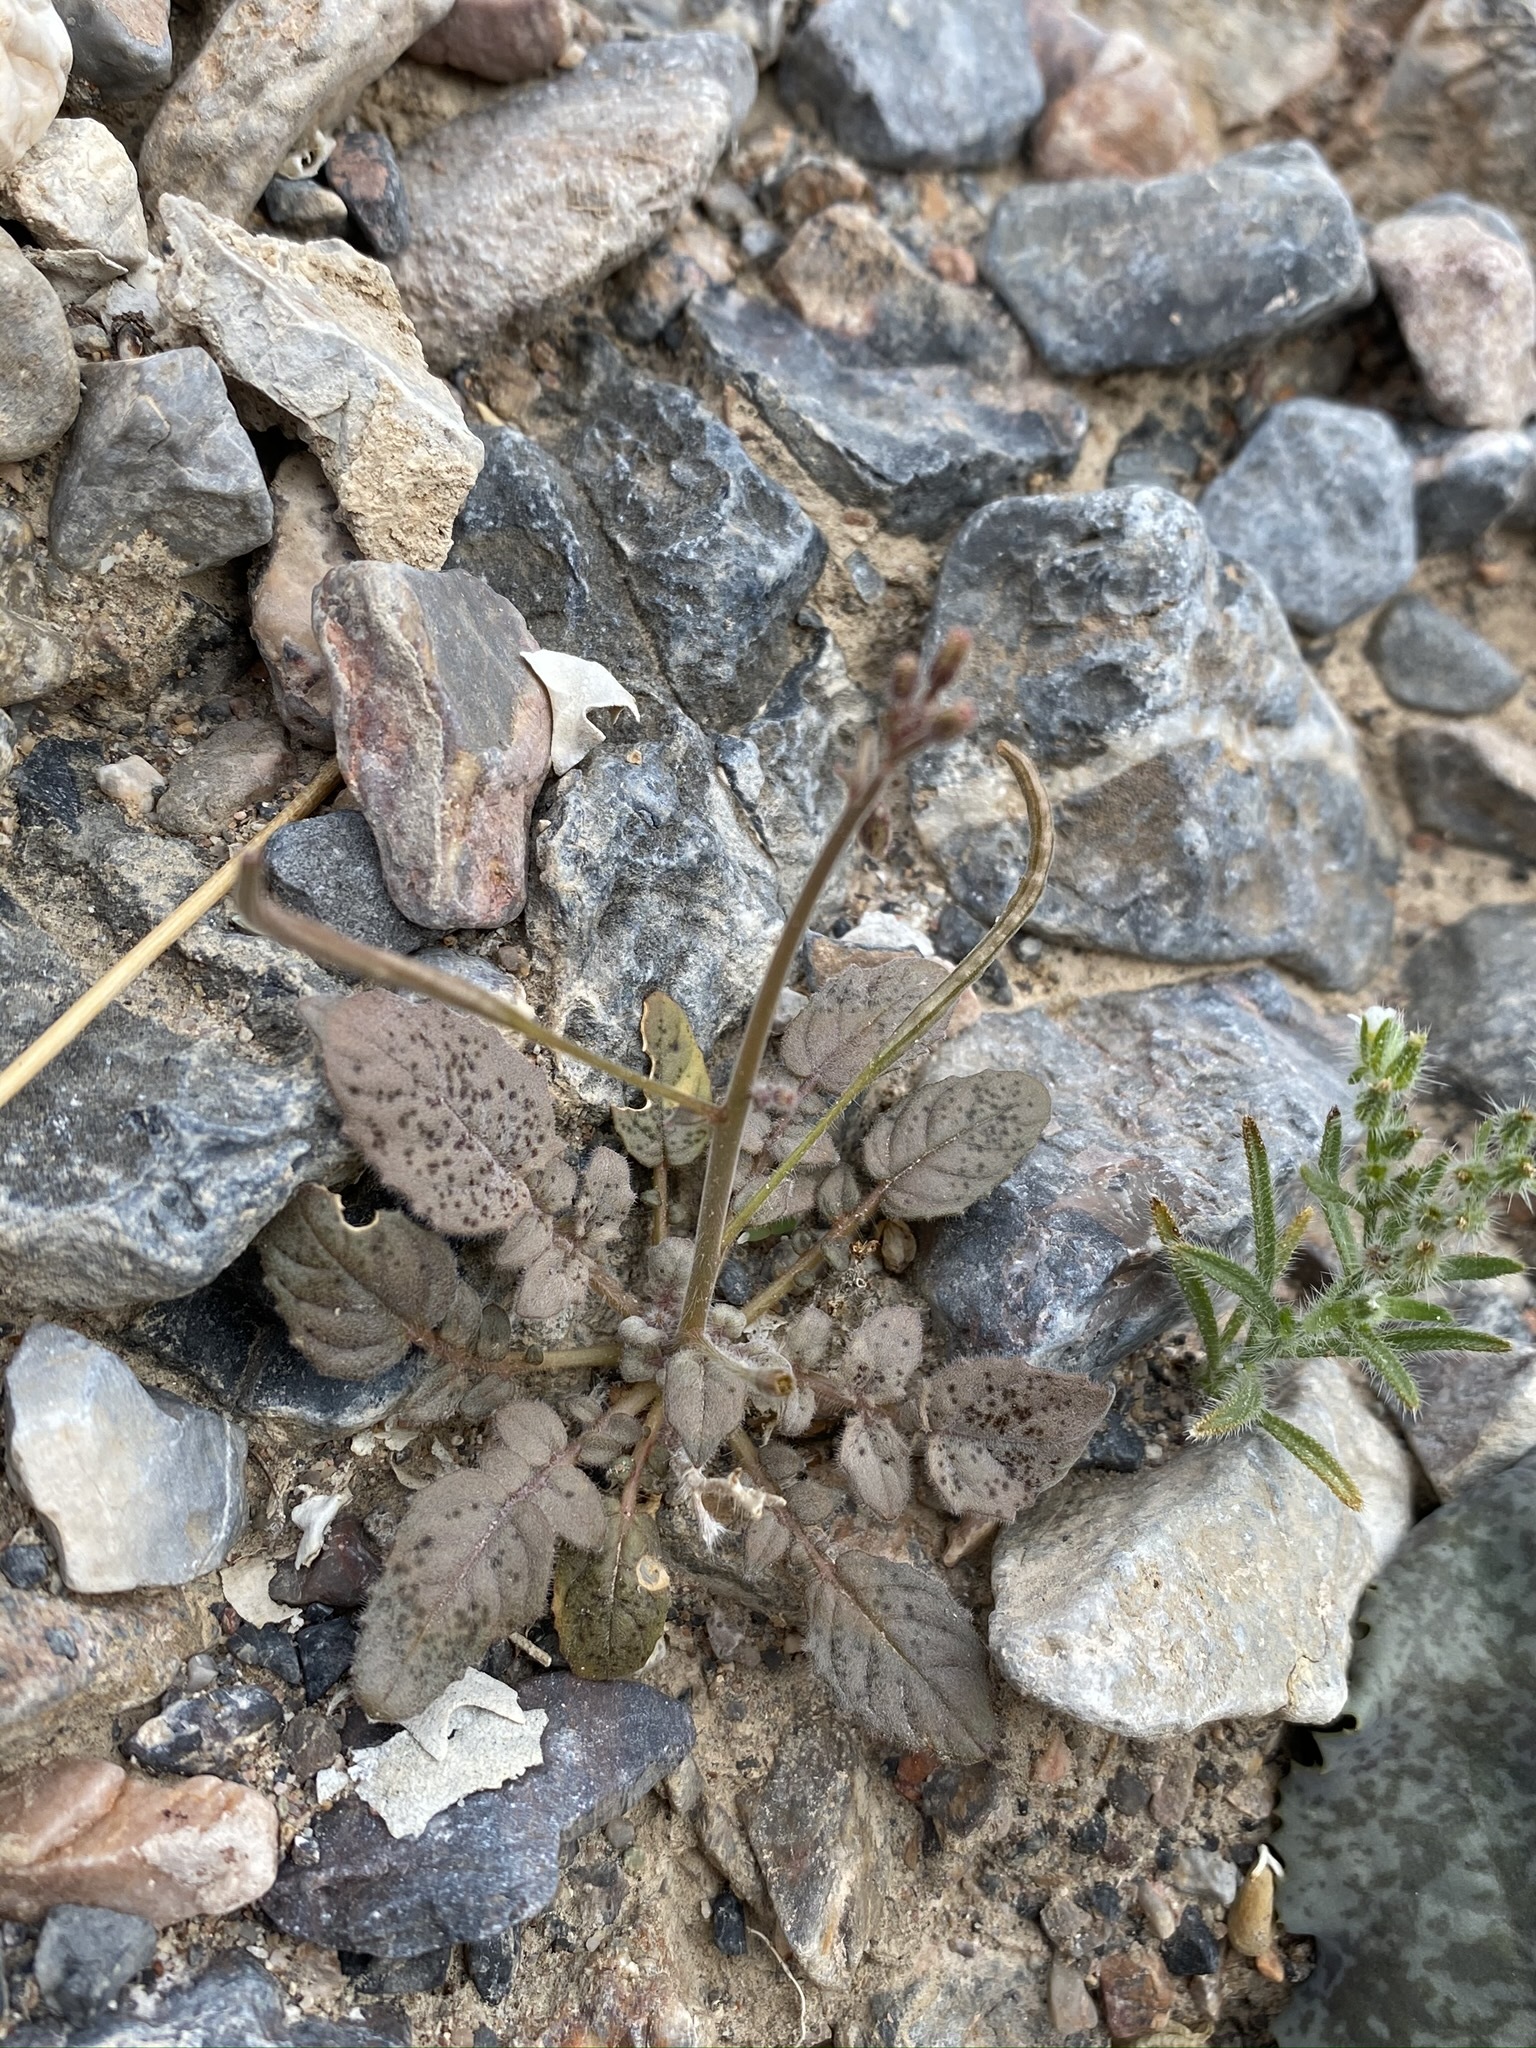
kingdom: Plantae
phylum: Tracheophyta
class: Magnoliopsida
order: Myrtales
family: Onagraceae
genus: Chylismia
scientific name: Chylismia walkeri
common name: Walker's suncup
